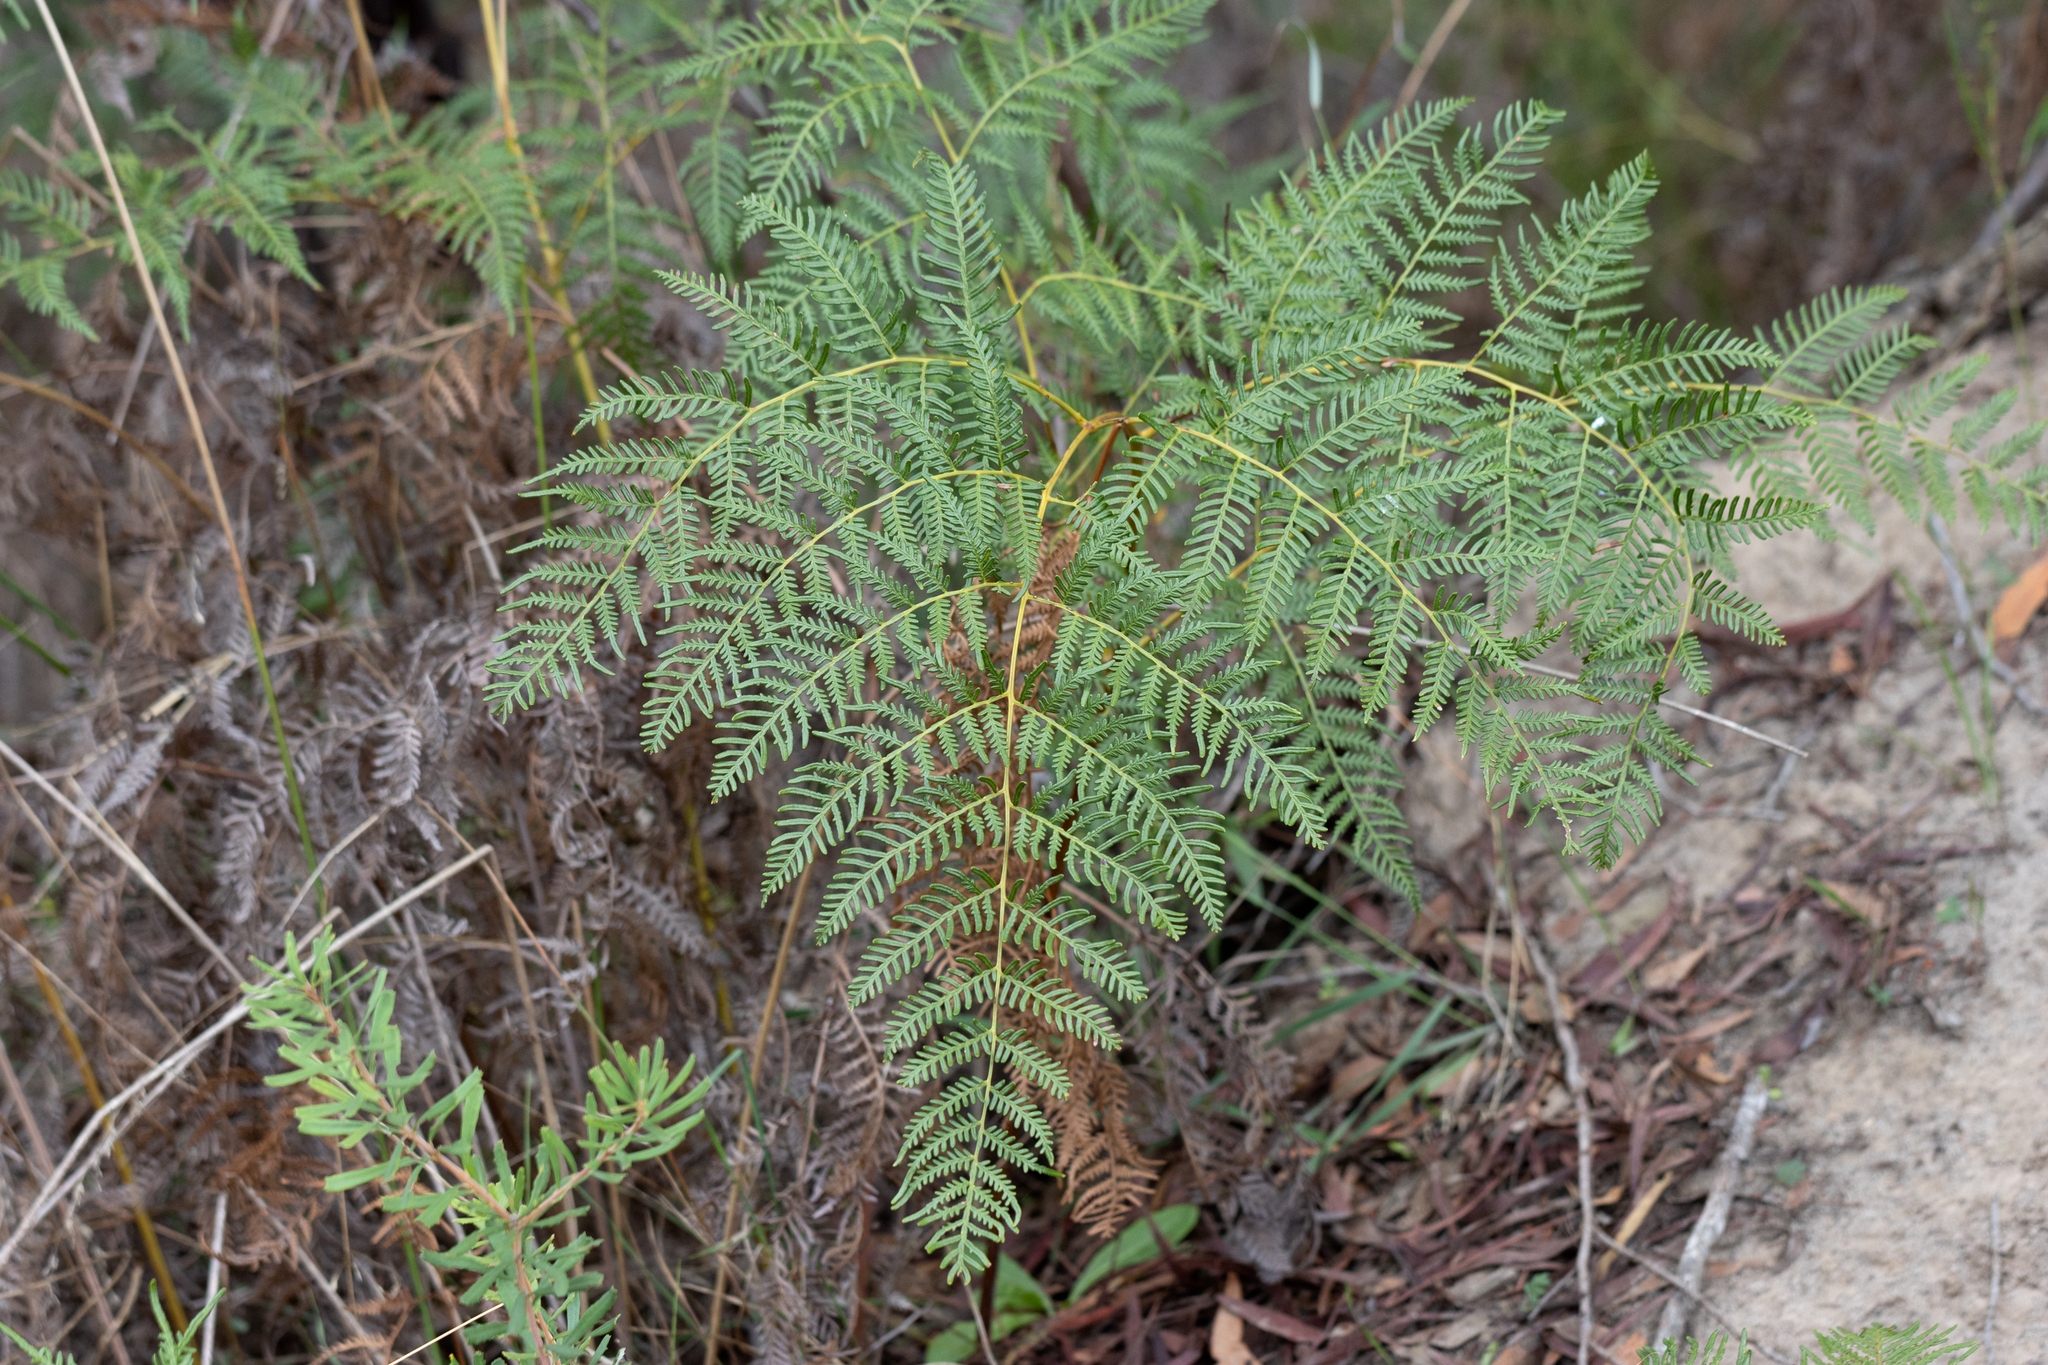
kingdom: Plantae
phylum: Tracheophyta
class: Polypodiopsida
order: Polypodiales
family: Dennstaedtiaceae
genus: Pteridium
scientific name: Pteridium esculentum
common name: Bracken fern
